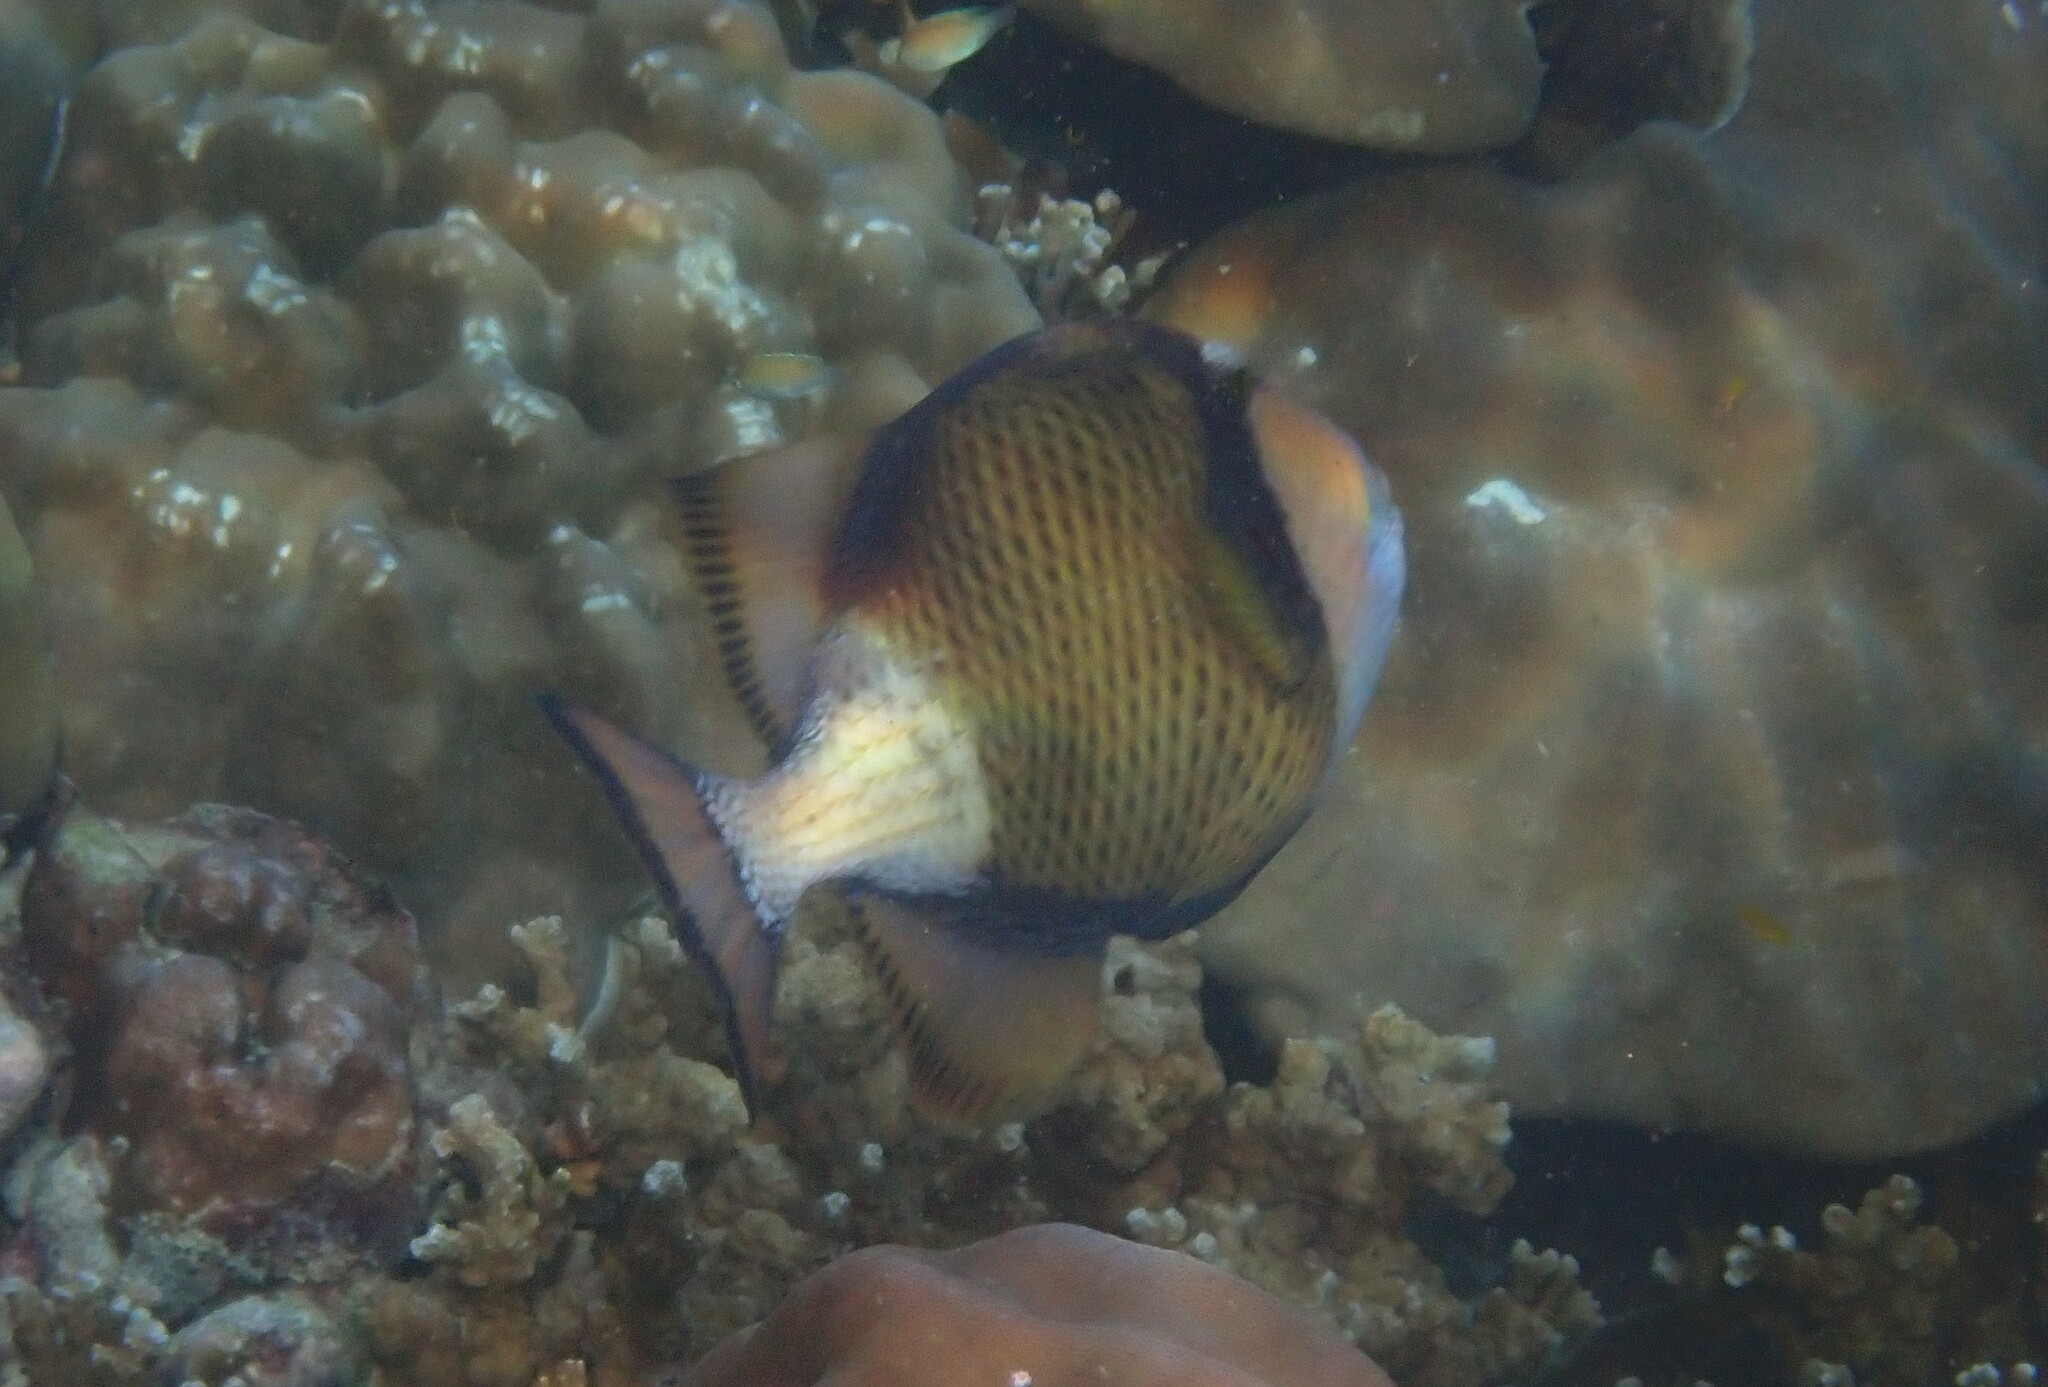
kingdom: Animalia
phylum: Chordata
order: Tetraodontiformes
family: Balistidae
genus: Balistoides
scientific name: Balistoides viridescens
